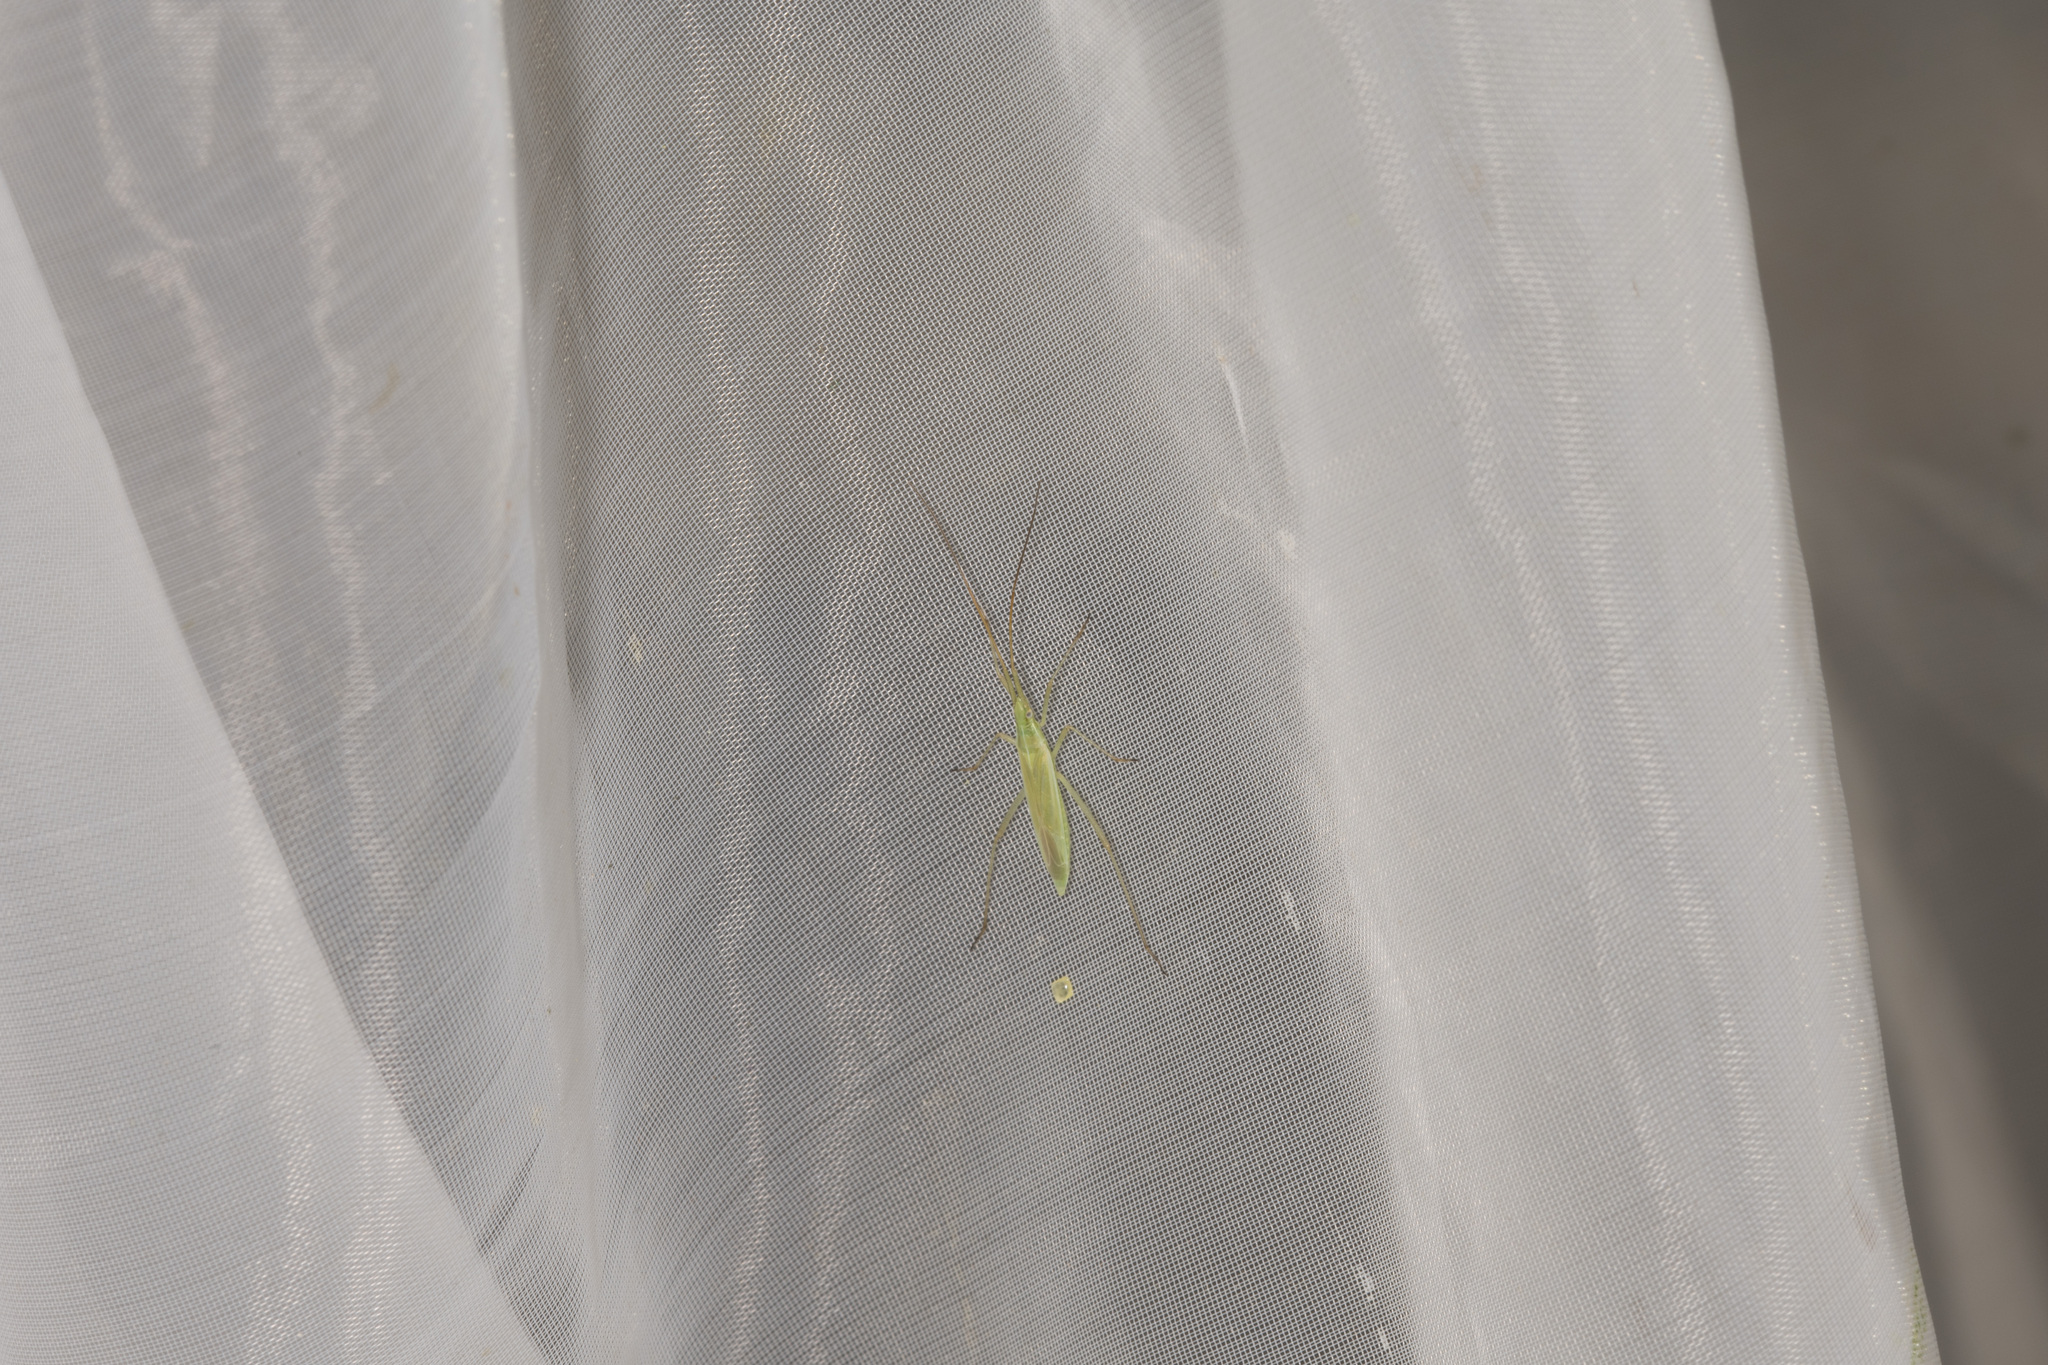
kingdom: Animalia
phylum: Arthropoda
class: Insecta
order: Hemiptera
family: Miridae
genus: Megaloceroea
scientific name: Megaloceroea recticornis
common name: Plant bug
